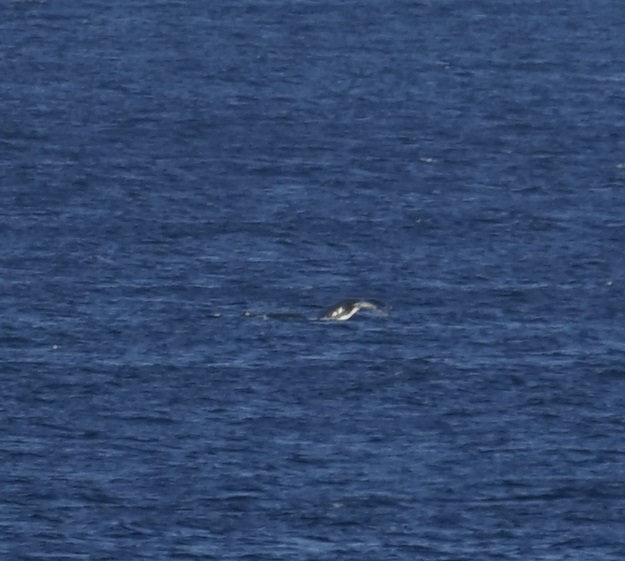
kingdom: Animalia
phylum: Chordata
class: Mammalia
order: Cetacea
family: Balaenopteridae
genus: Megaptera
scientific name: Megaptera novaeangliae
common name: Humpback whale
